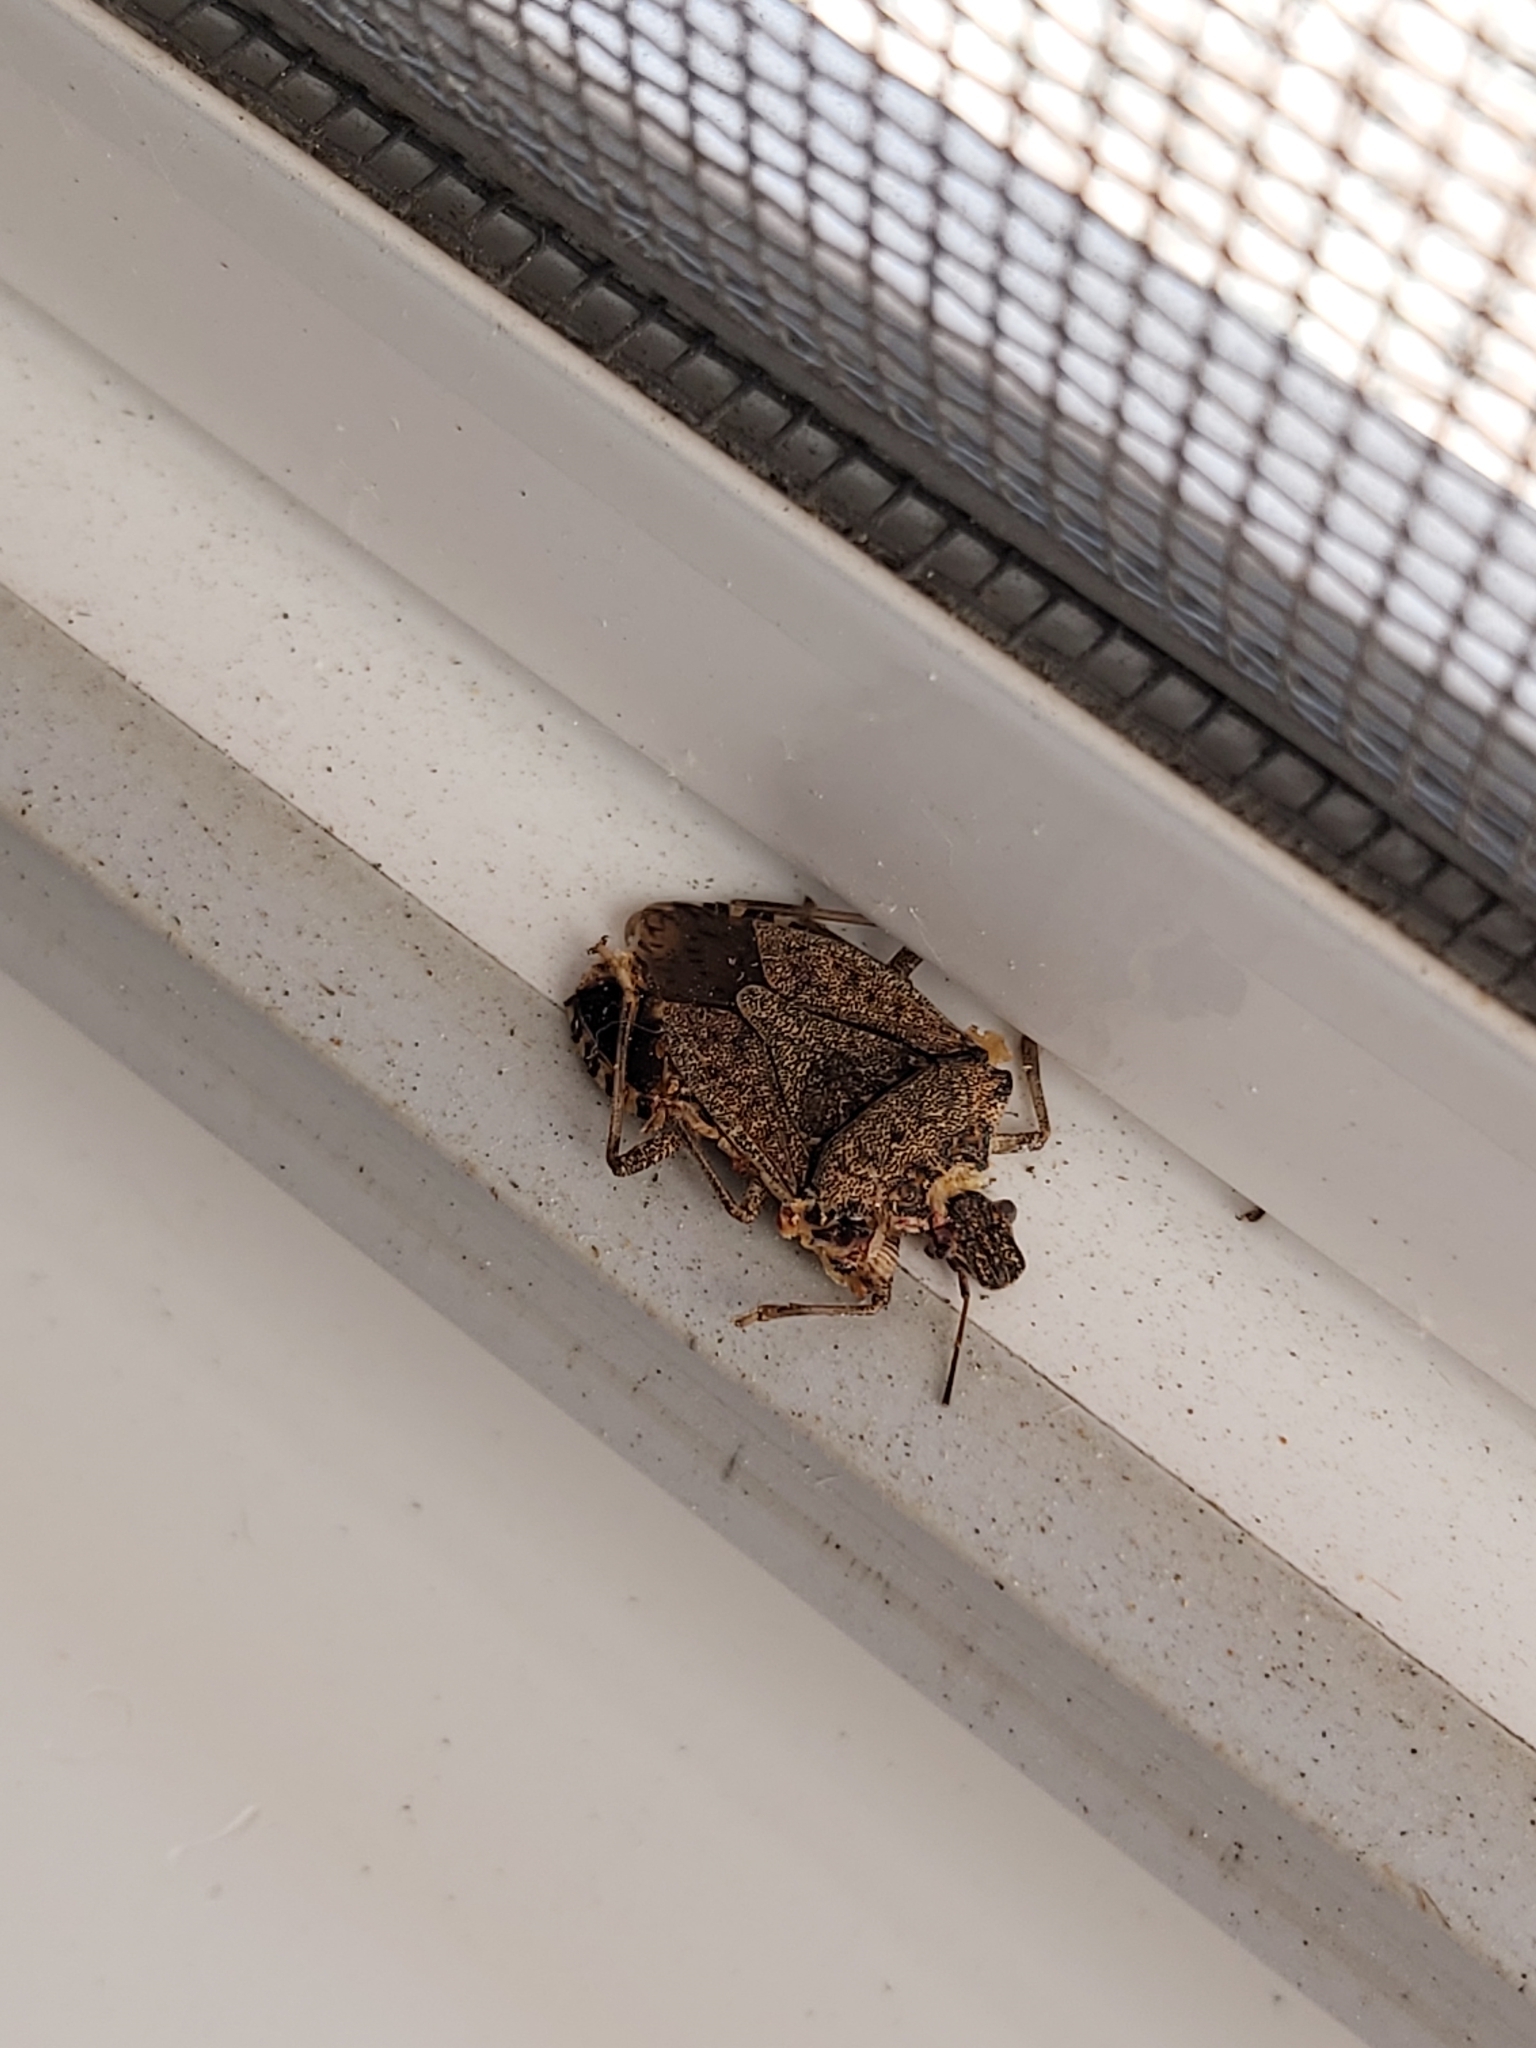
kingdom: Animalia
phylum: Arthropoda
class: Insecta
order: Hemiptera
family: Pentatomidae
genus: Halyomorpha
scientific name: Halyomorpha halys
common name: Brown marmorated stink bug
